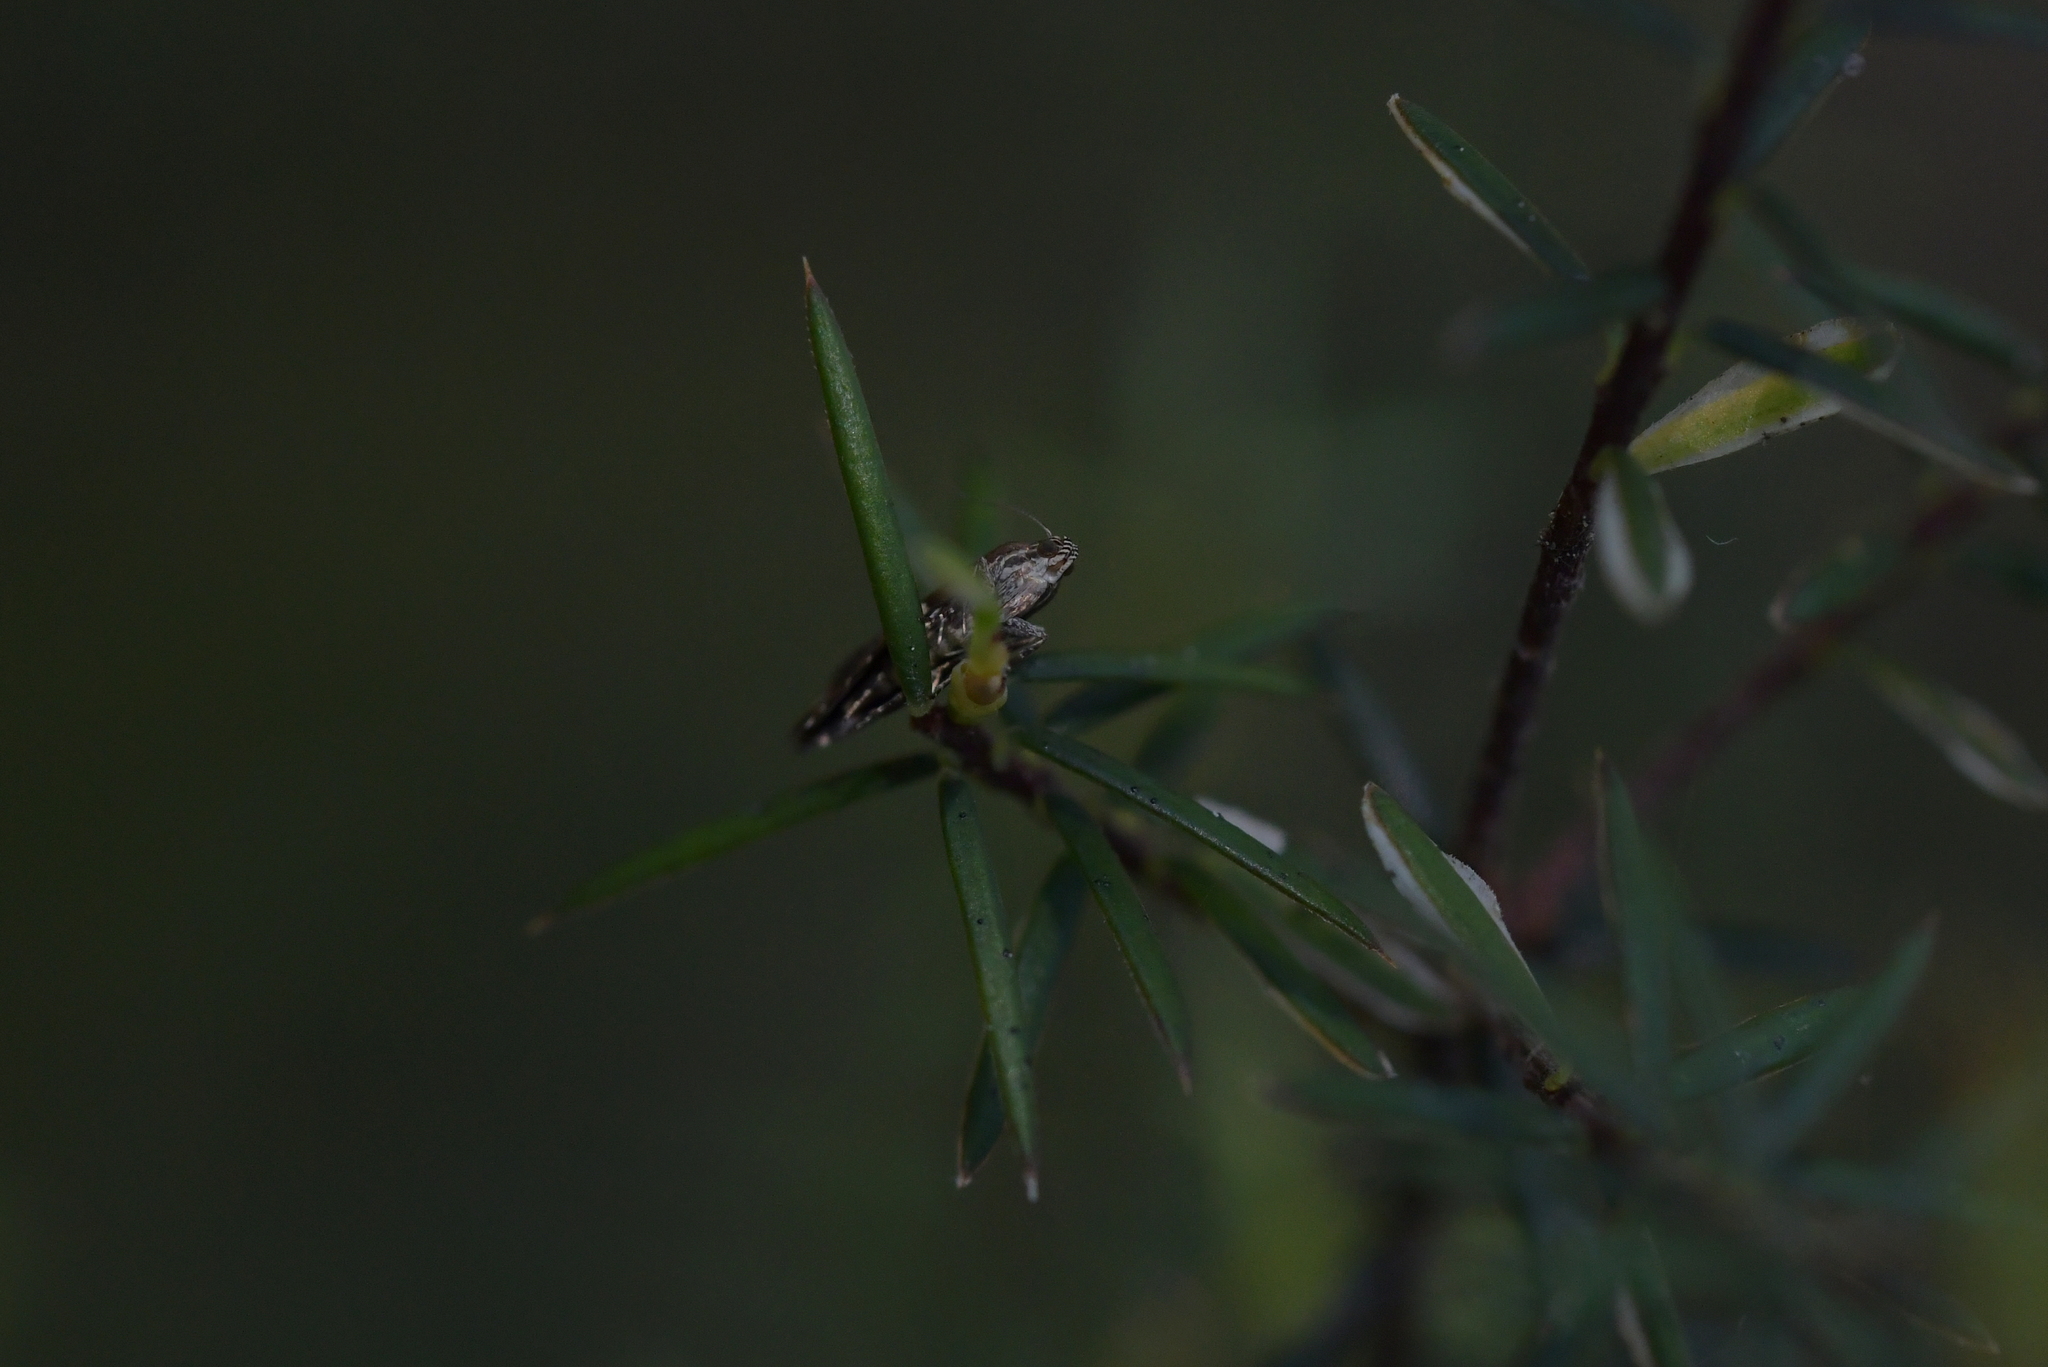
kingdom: Animalia
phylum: Arthropoda
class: Insecta
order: Lepidoptera
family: Glyphipterigidae
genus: Glyphipterix
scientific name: Glyphipterix zelota
